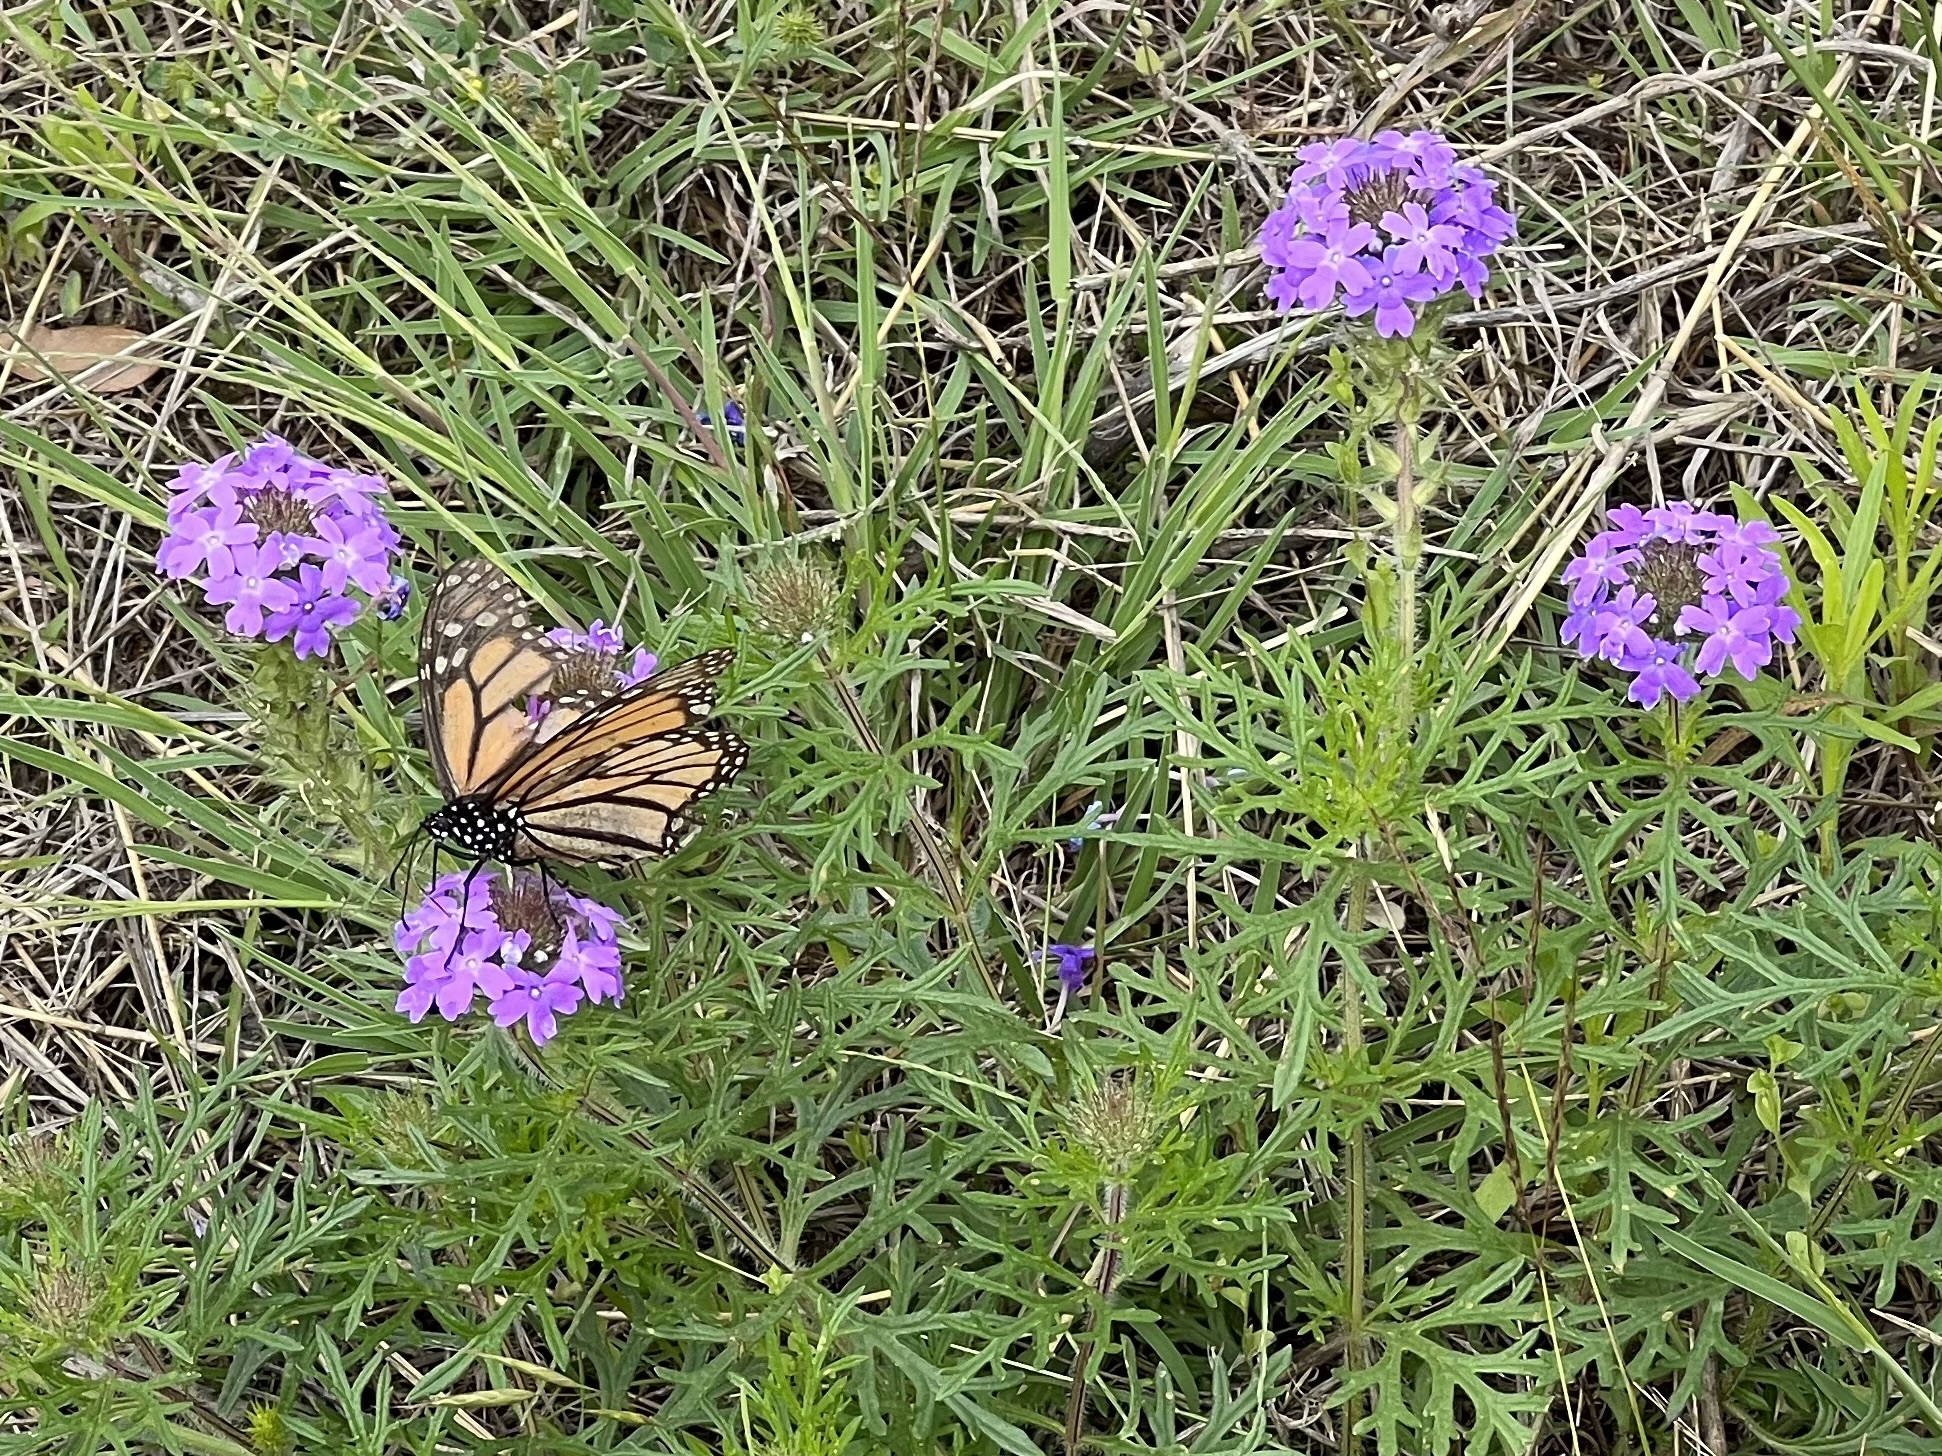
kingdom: Animalia
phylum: Arthropoda
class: Insecta
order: Lepidoptera
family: Nymphalidae
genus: Danaus
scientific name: Danaus plexippus
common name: Monarch
